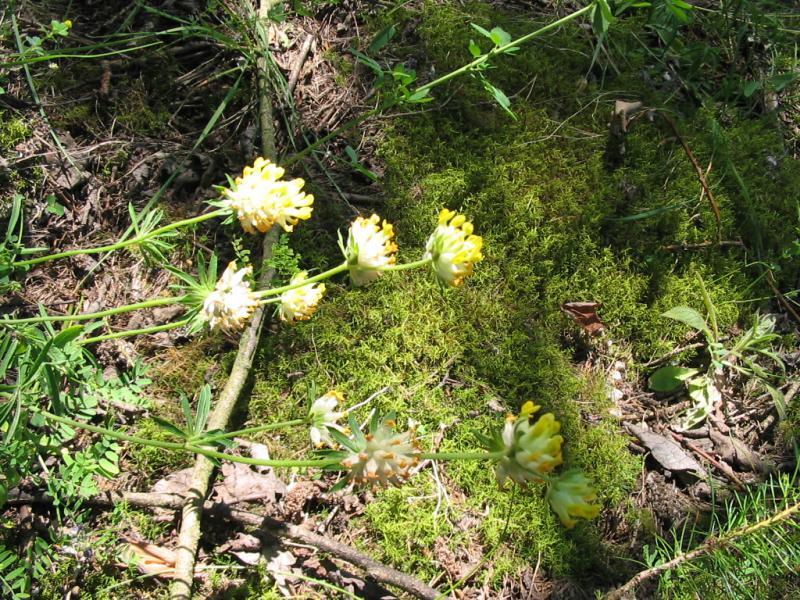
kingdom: Plantae
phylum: Tracheophyta
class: Magnoliopsida
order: Fabales
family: Fabaceae
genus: Anthyllis
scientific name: Anthyllis vulneraria
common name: Kidney vetch
